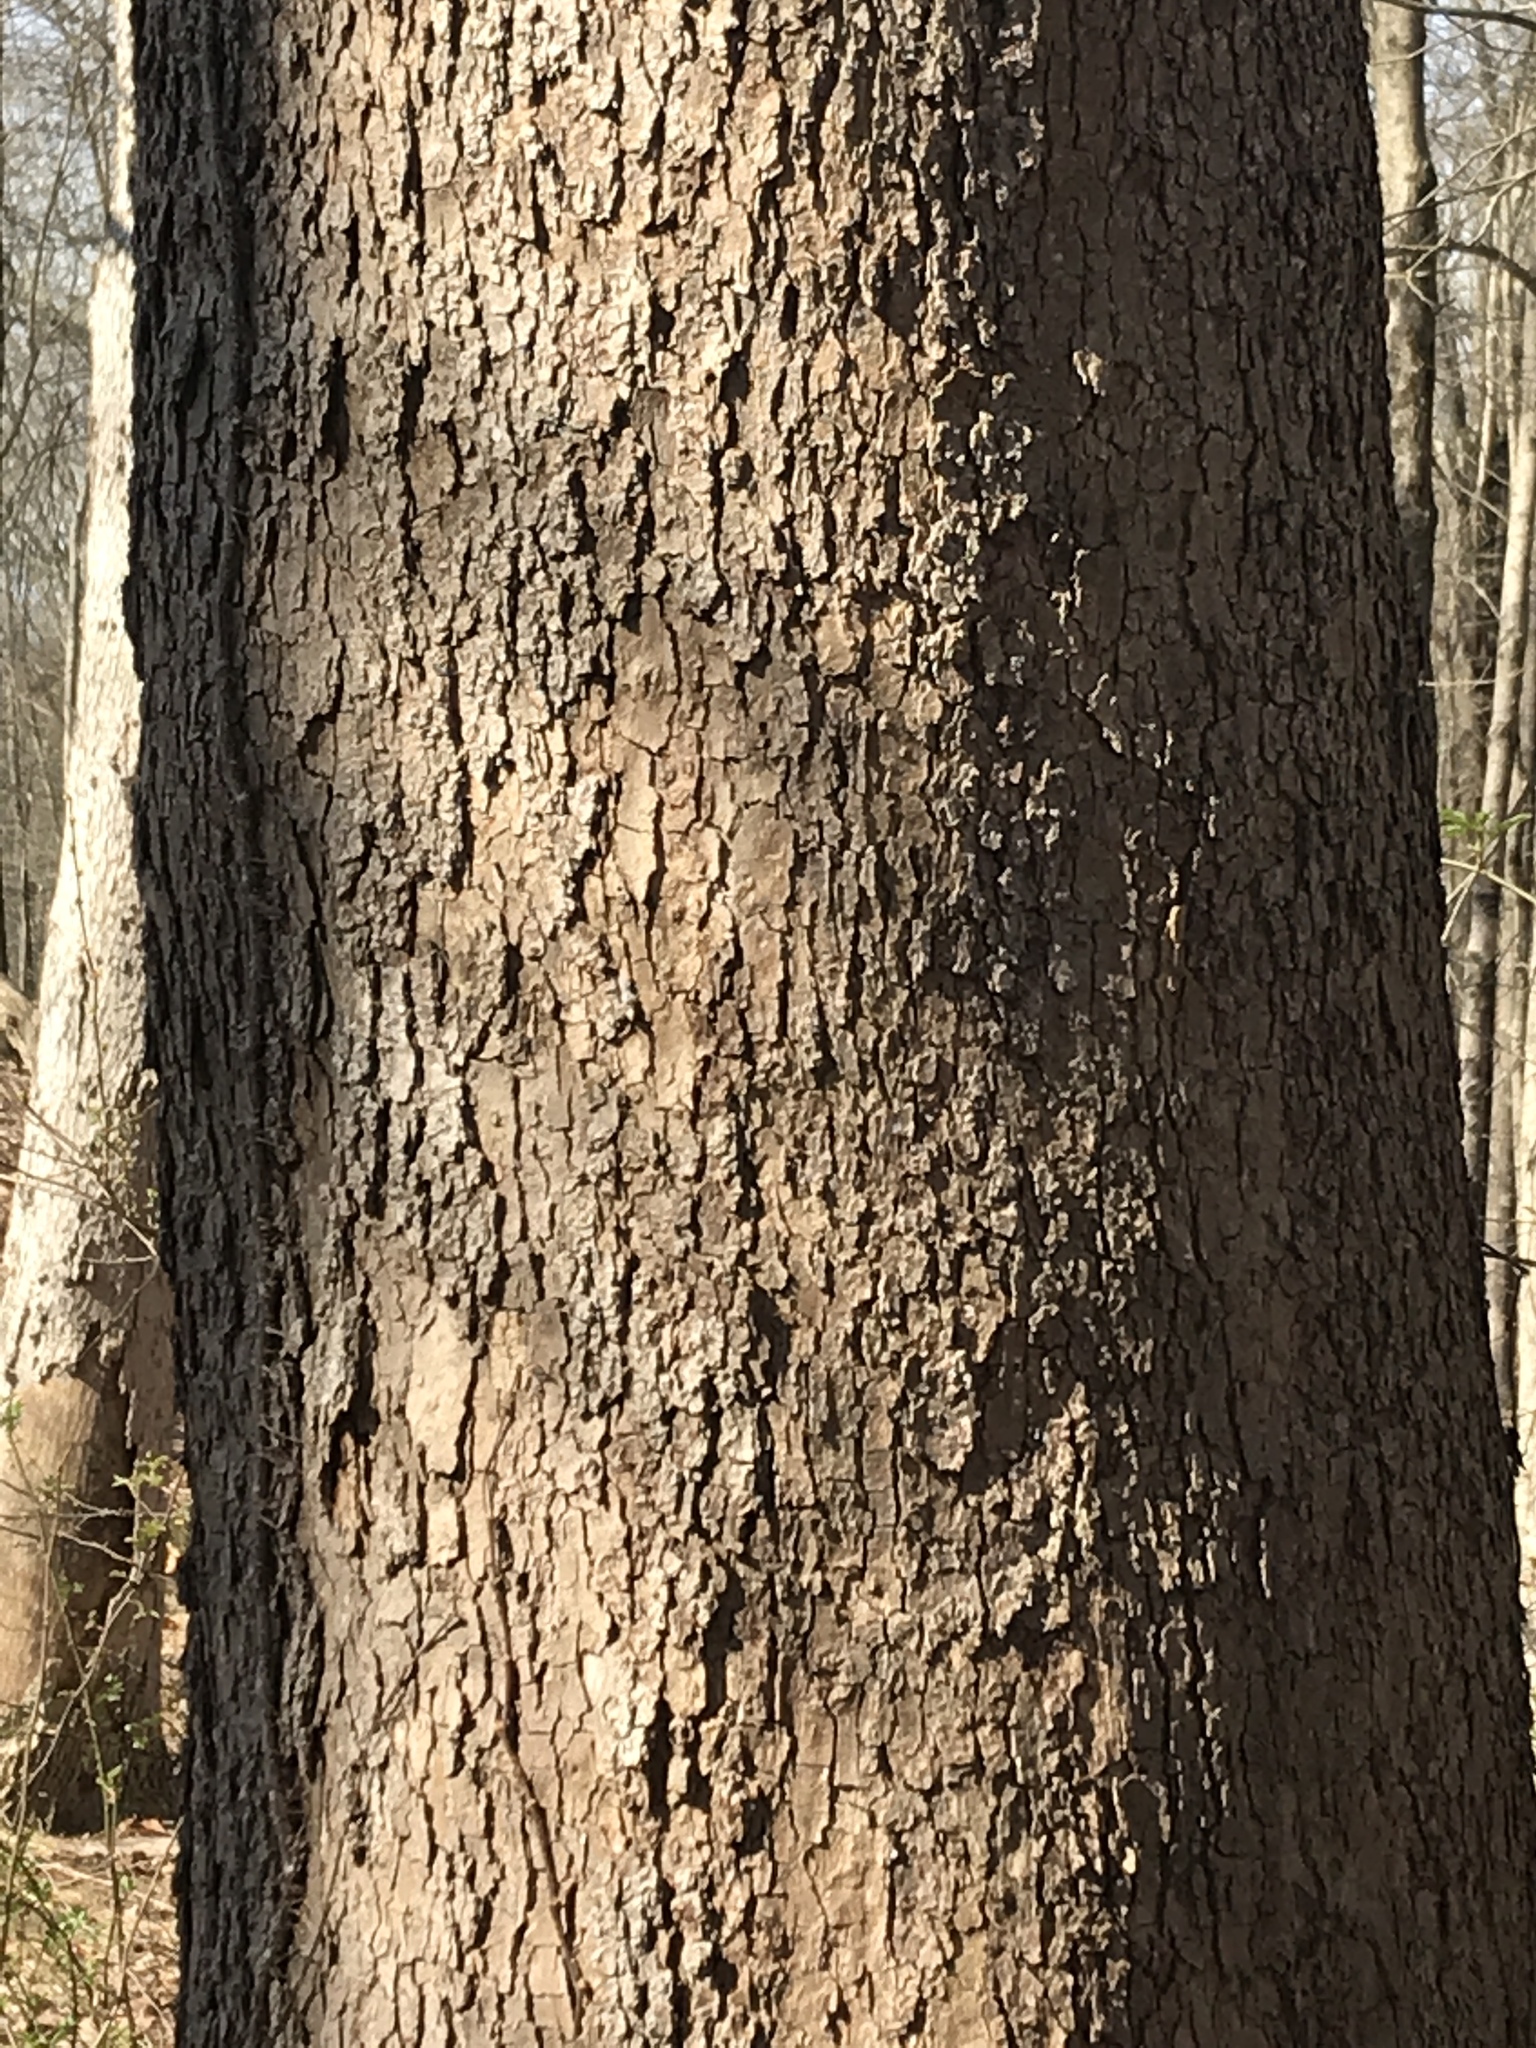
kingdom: Plantae
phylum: Tracheophyta
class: Magnoliopsida
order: Proteales
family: Platanaceae
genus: Platanus
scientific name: Platanus occidentalis
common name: American sycamore
